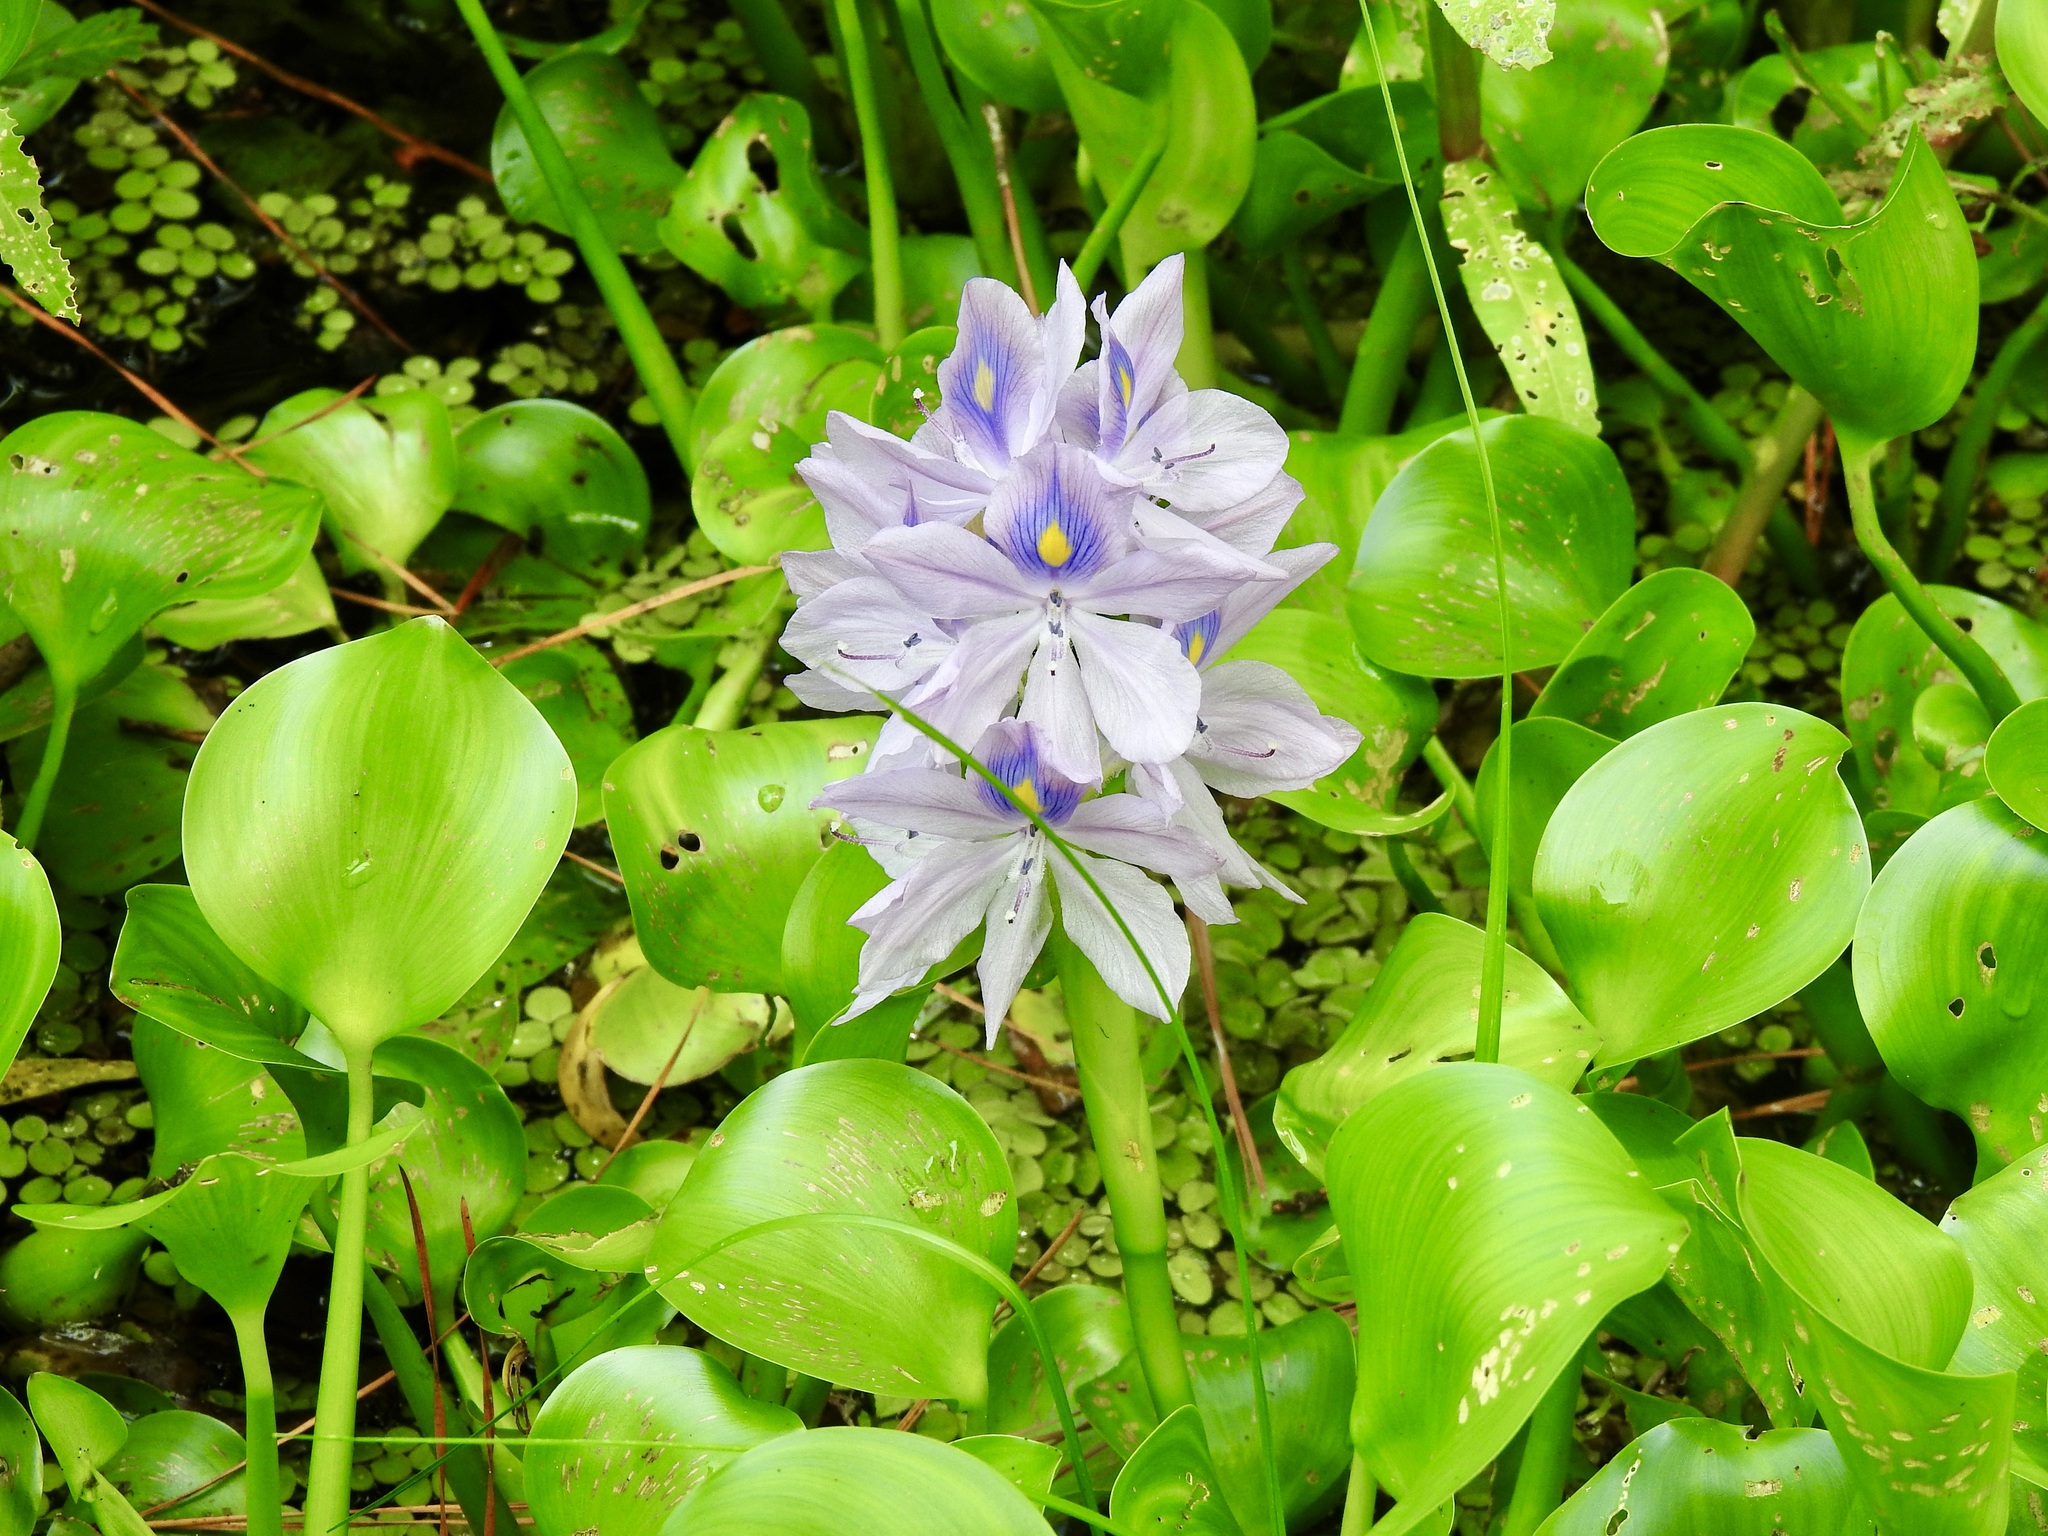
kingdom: Plantae
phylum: Tracheophyta
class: Liliopsida
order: Commelinales
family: Pontederiaceae
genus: Pontederia
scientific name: Pontederia crassipes
